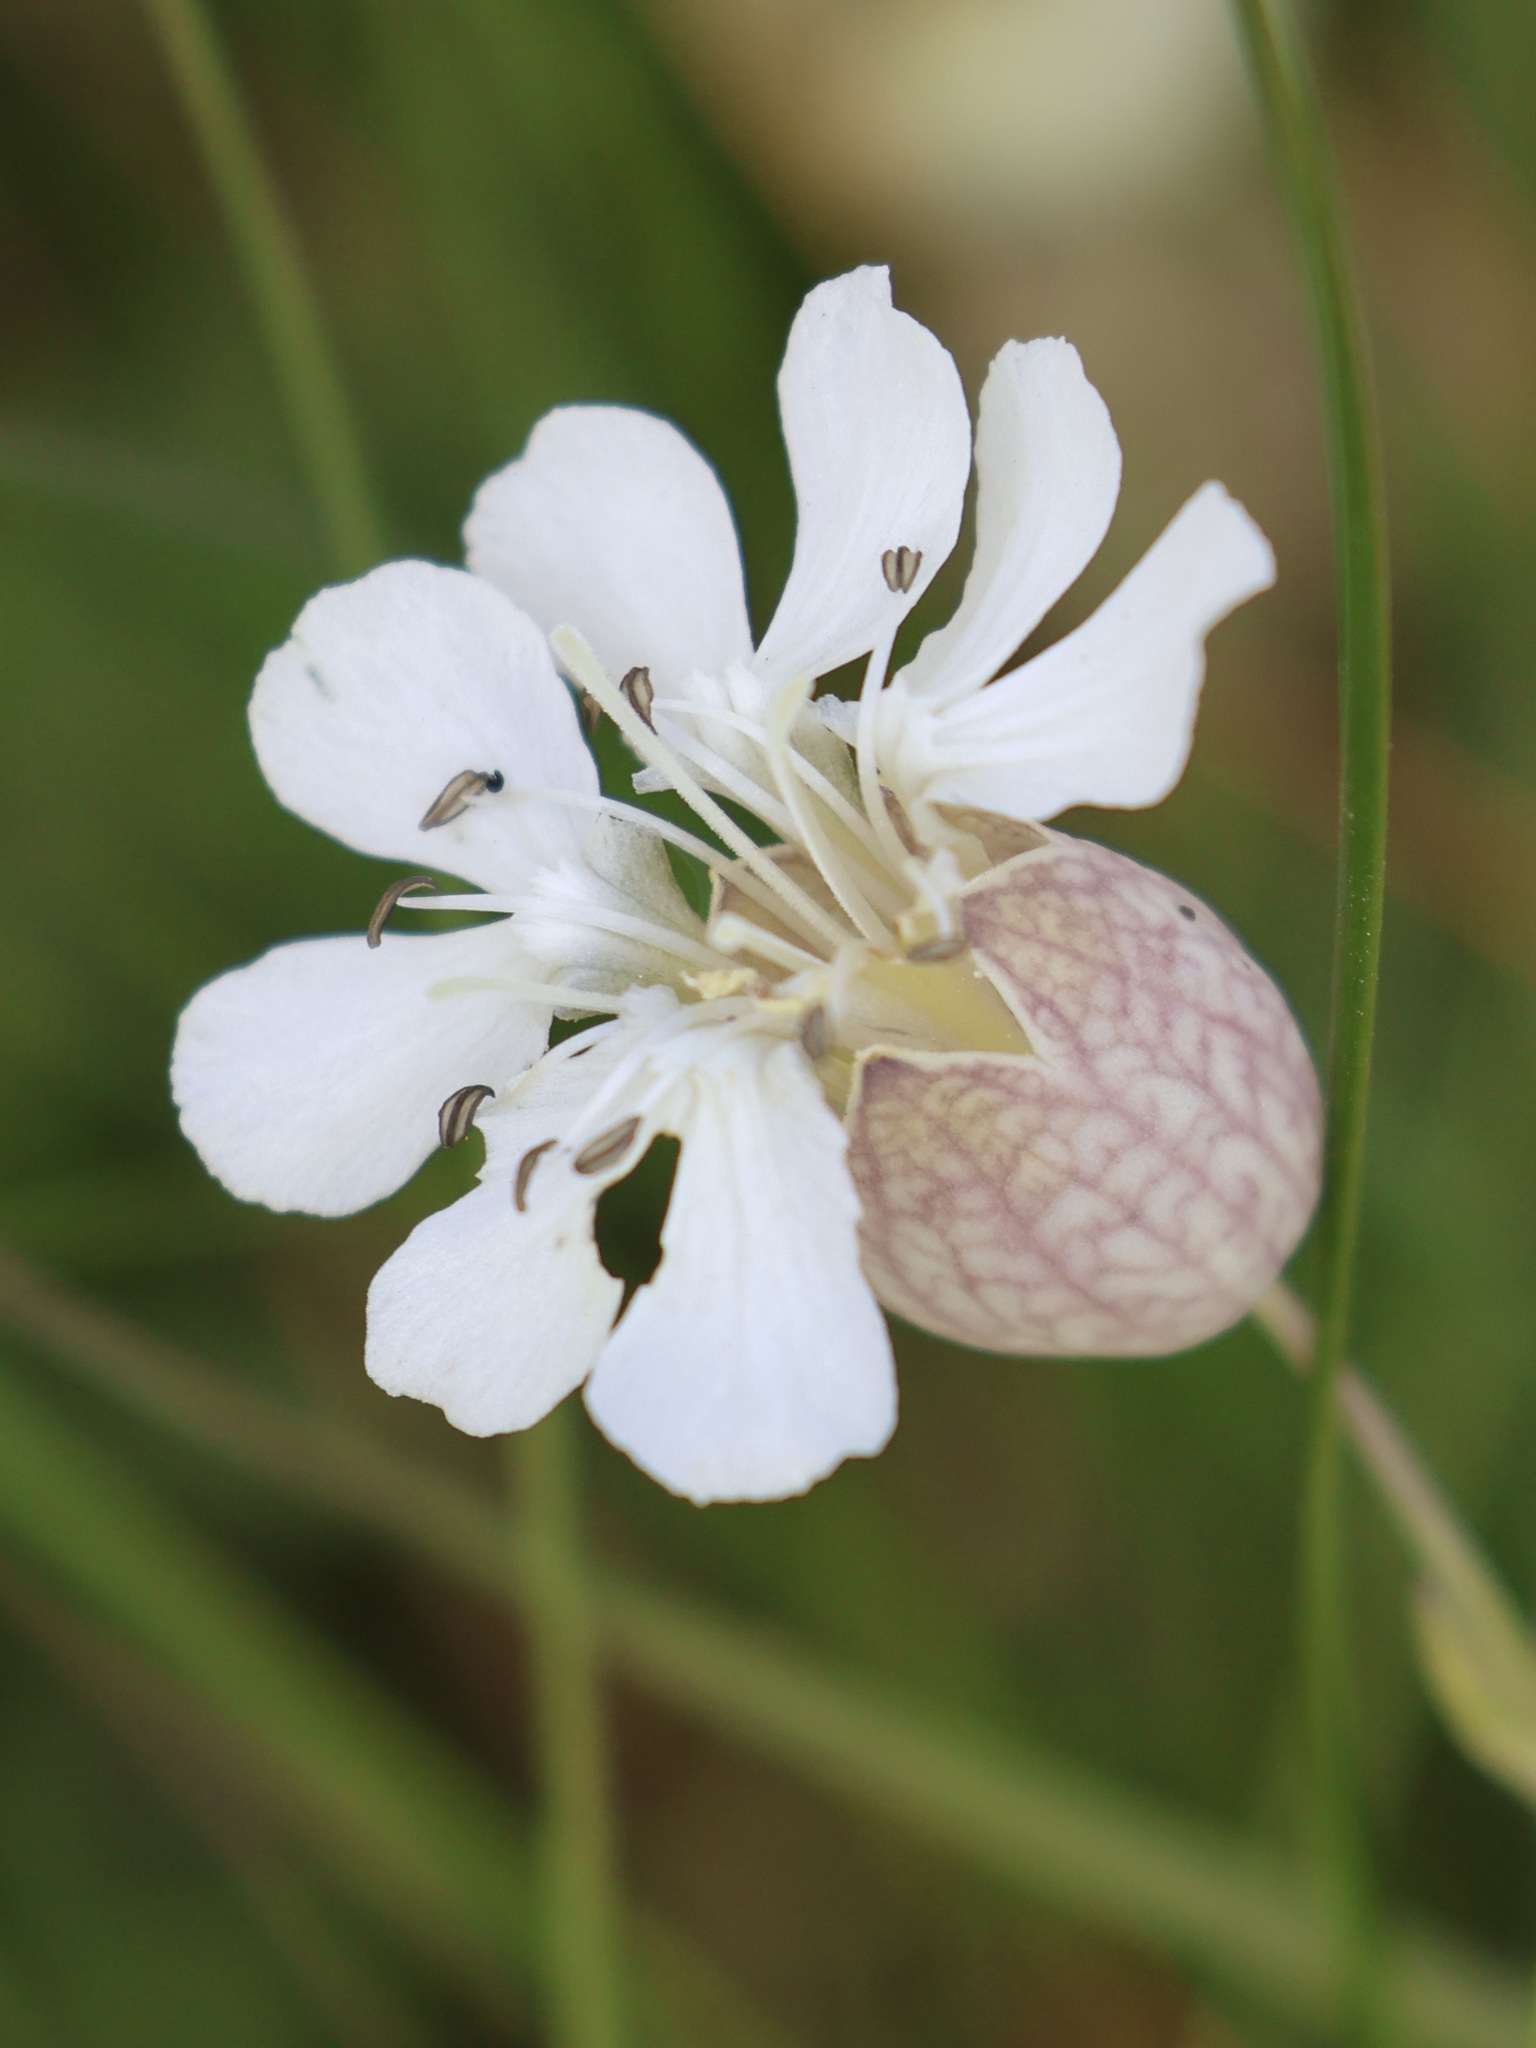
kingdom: Plantae
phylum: Tracheophyta
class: Magnoliopsida
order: Caryophyllales
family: Caryophyllaceae
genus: Silene
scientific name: Silene uniflora
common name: Sea campion
